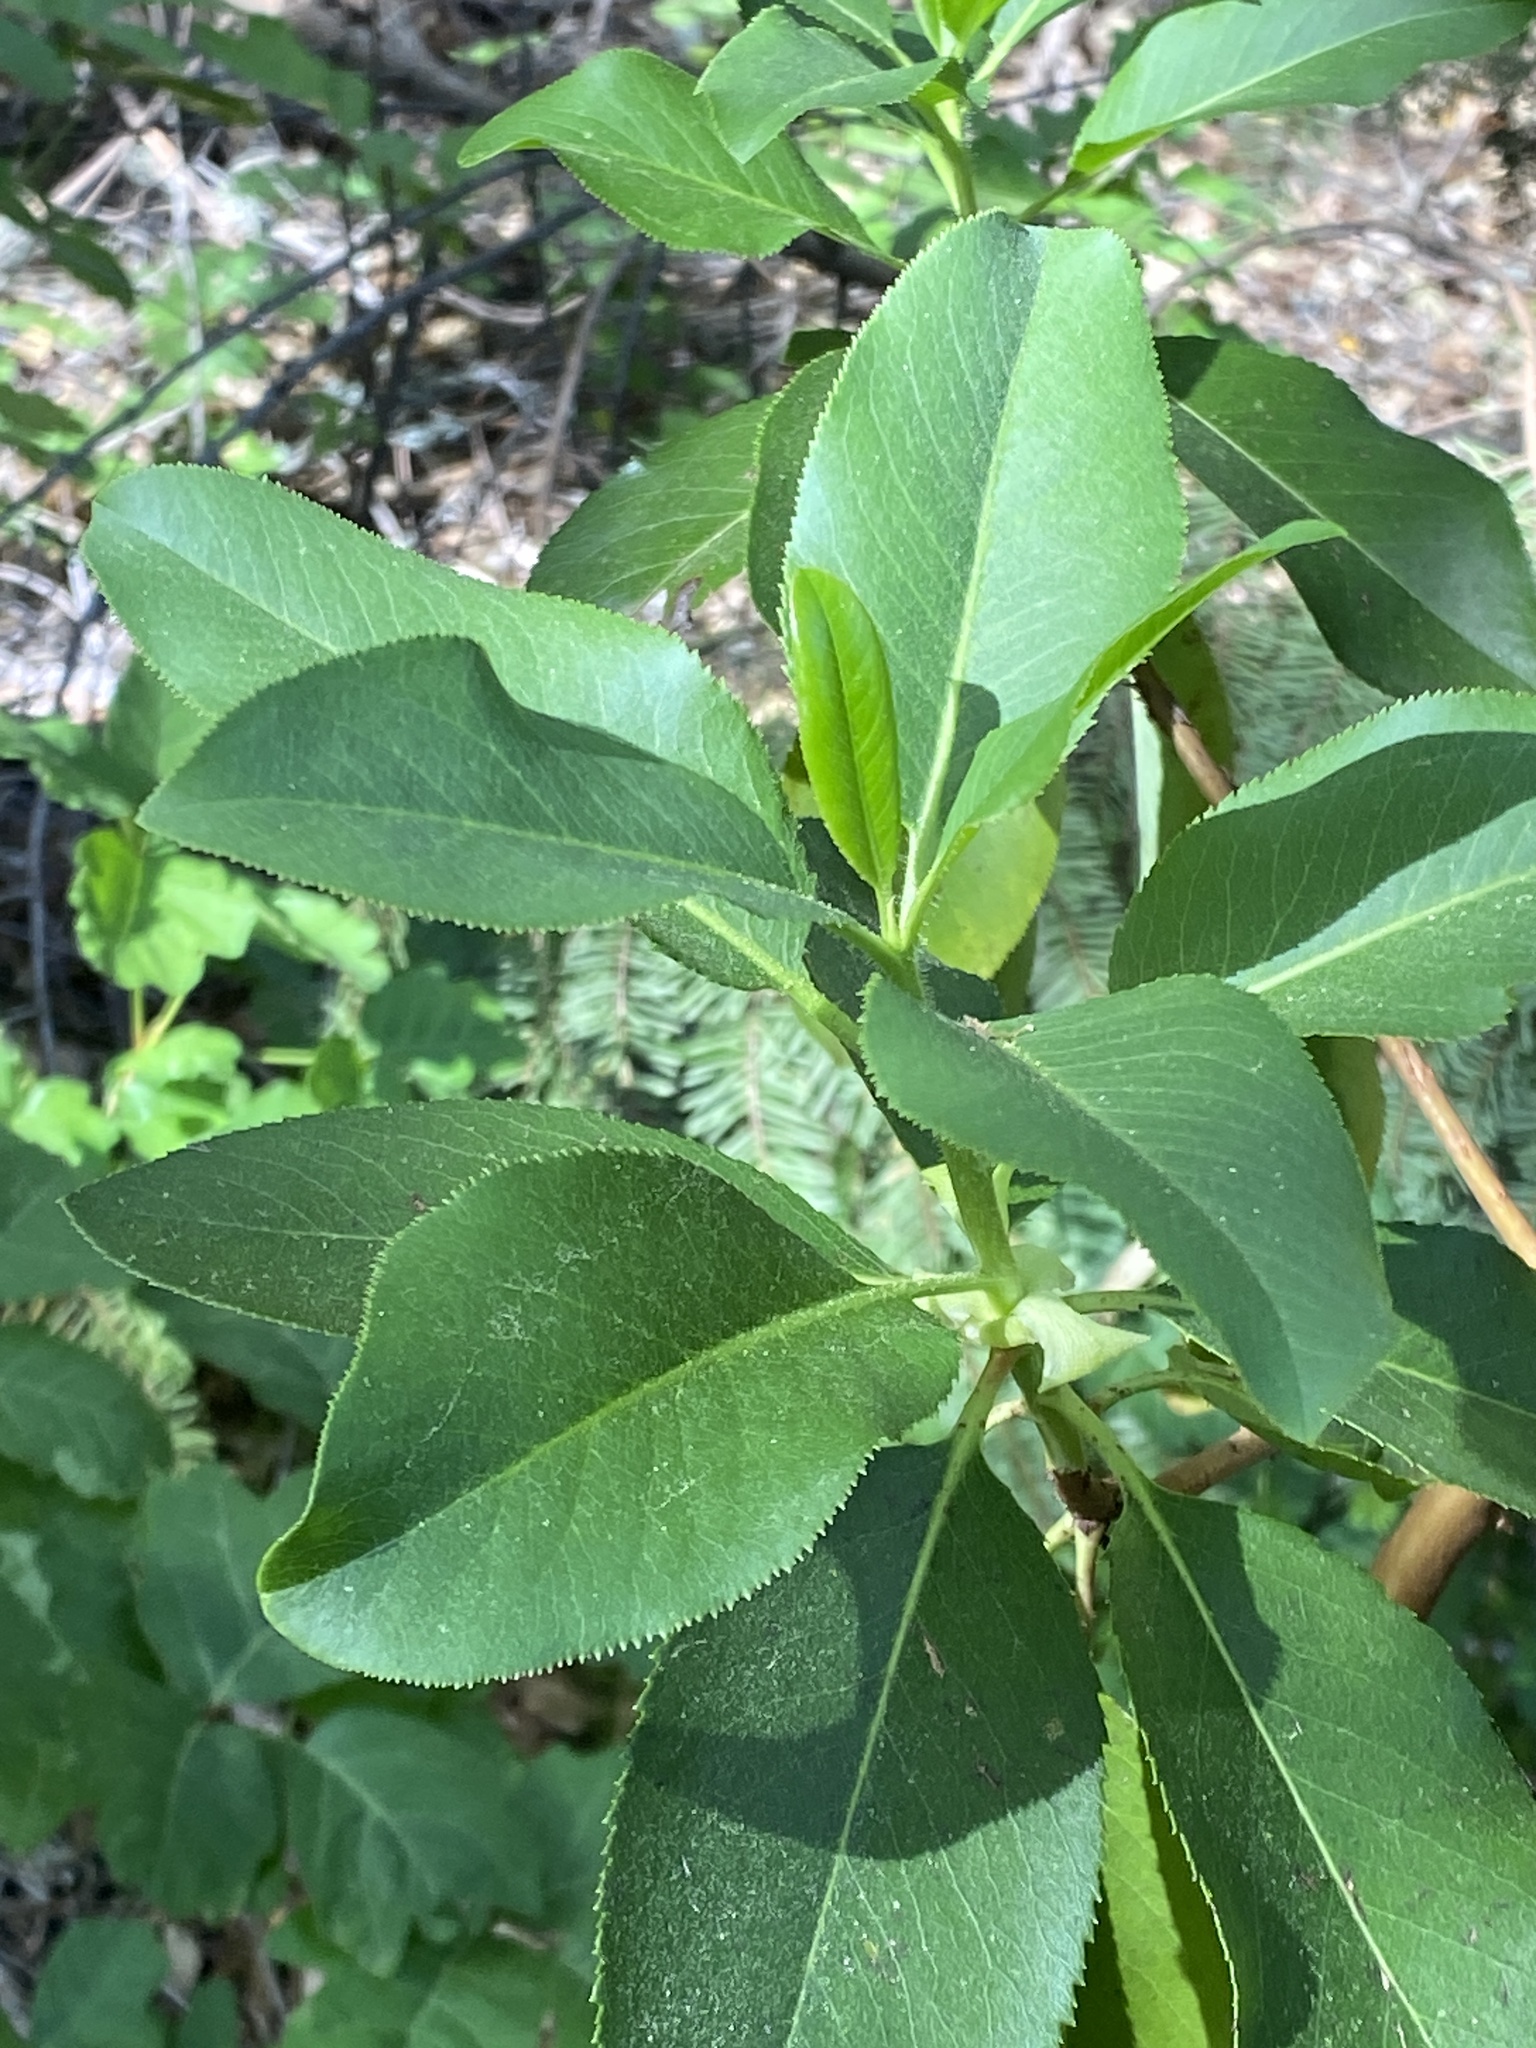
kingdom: Plantae
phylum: Tracheophyta
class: Magnoliopsida
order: Ericales
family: Ericaceae
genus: Arbutus
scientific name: Arbutus menziesii
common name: Pacific madrone
